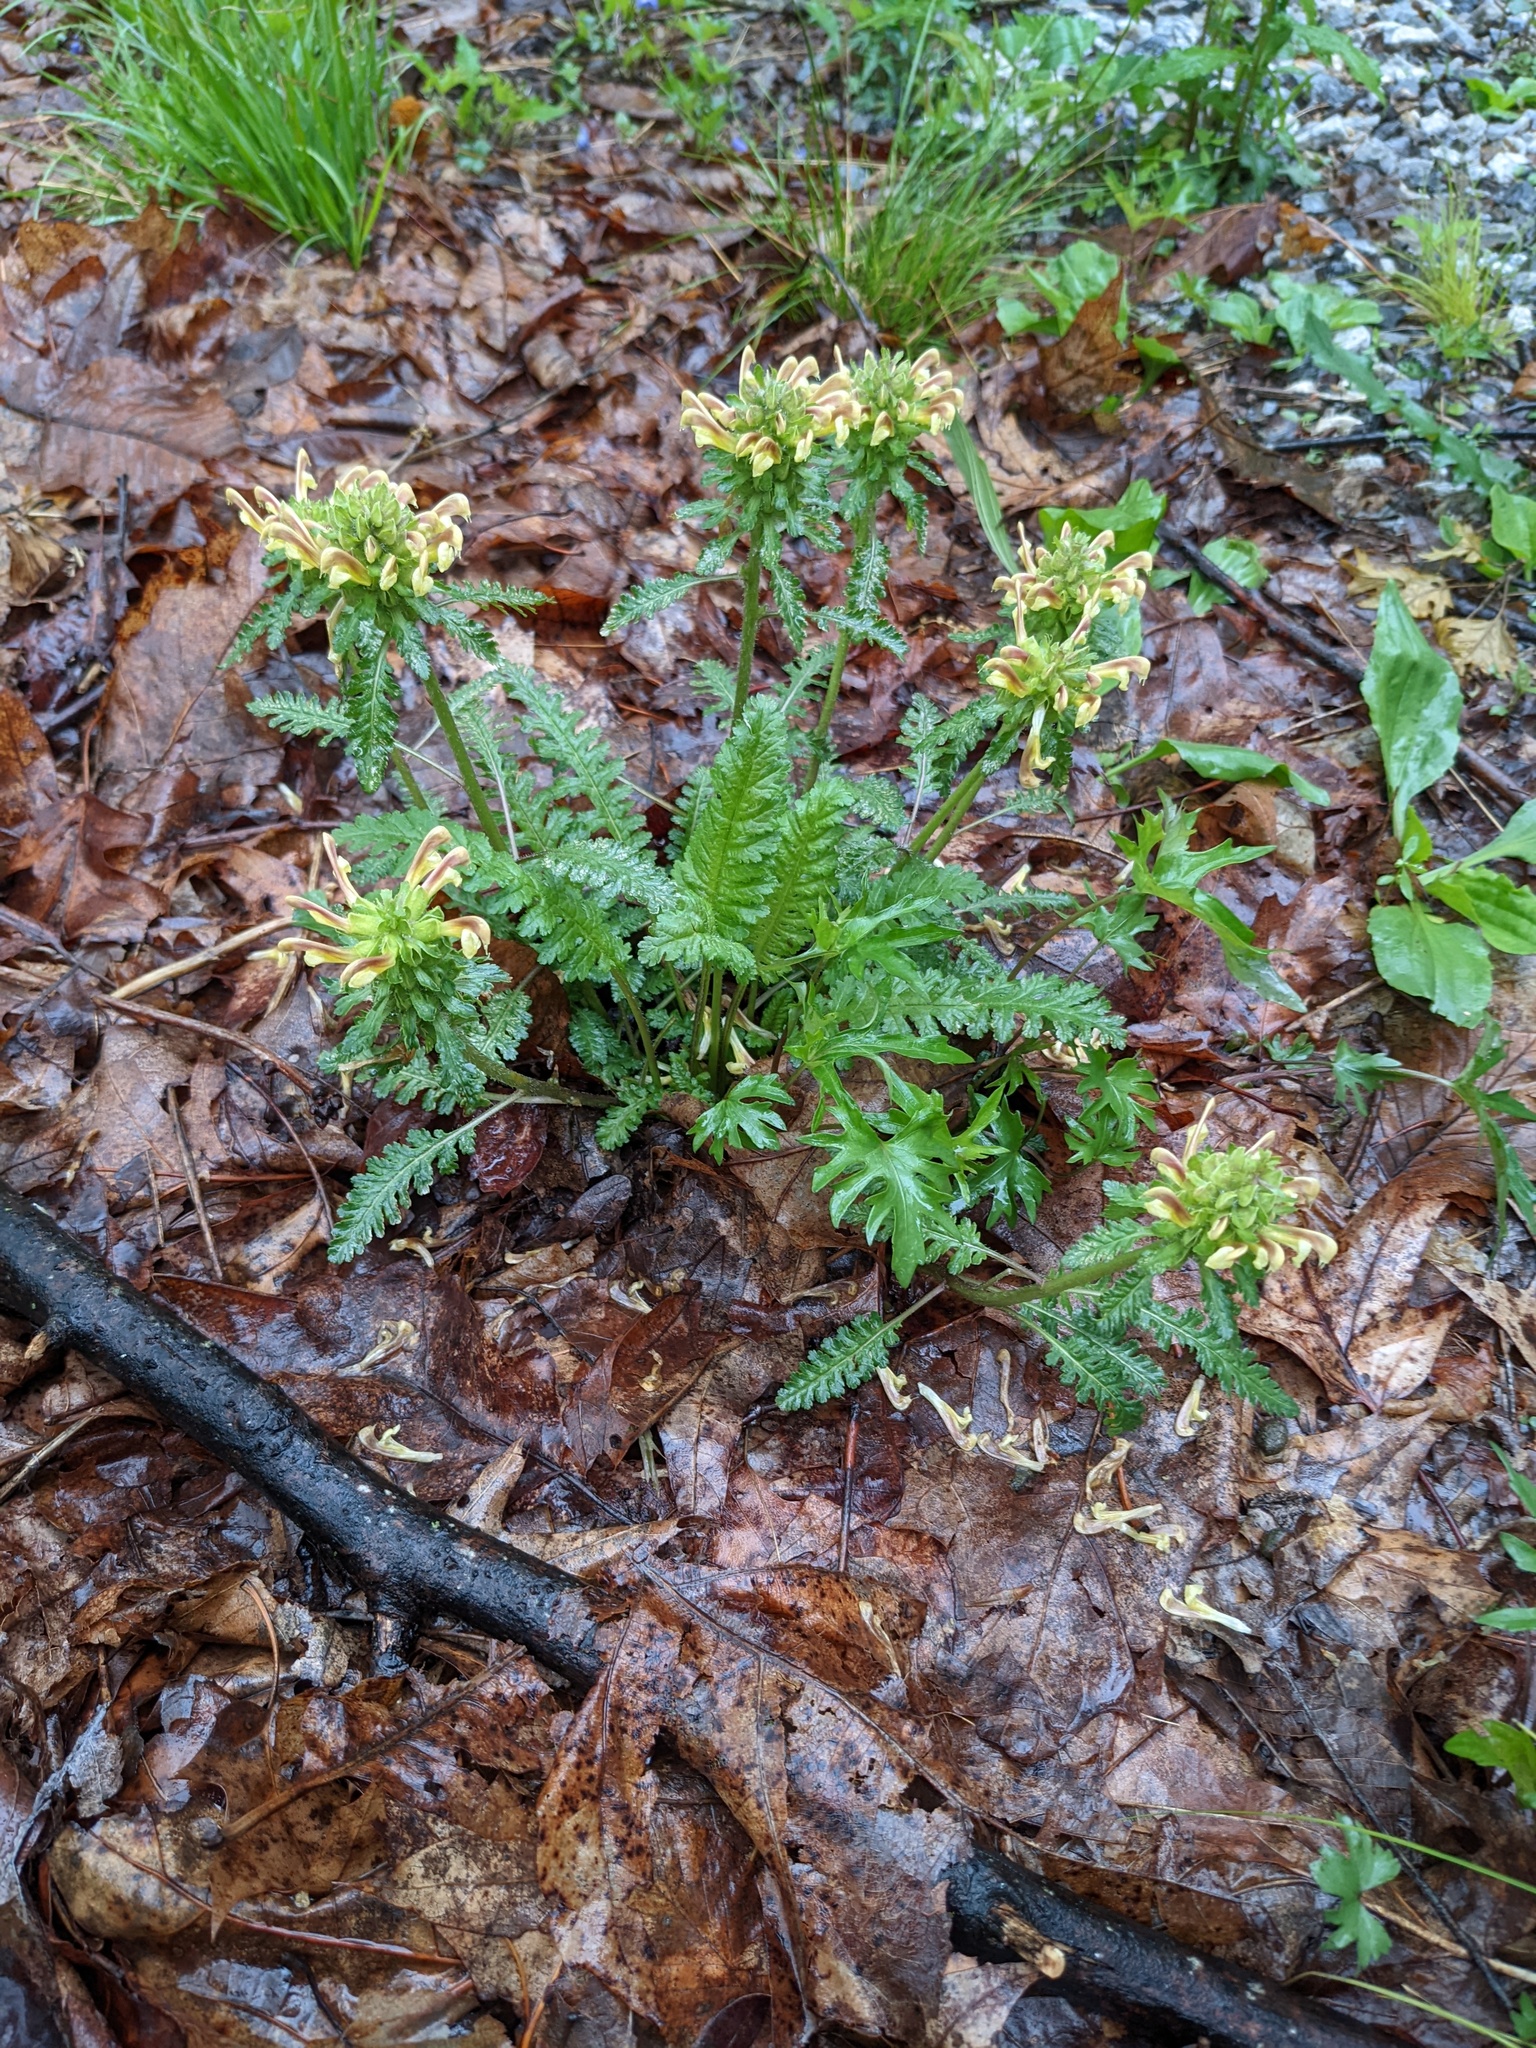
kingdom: Plantae
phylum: Tracheophyta
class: Magnoliopsida
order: Lamiales
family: Orobanchaceae
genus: Pedicularis
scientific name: Pedicularis canadensis
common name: Early lousewort
